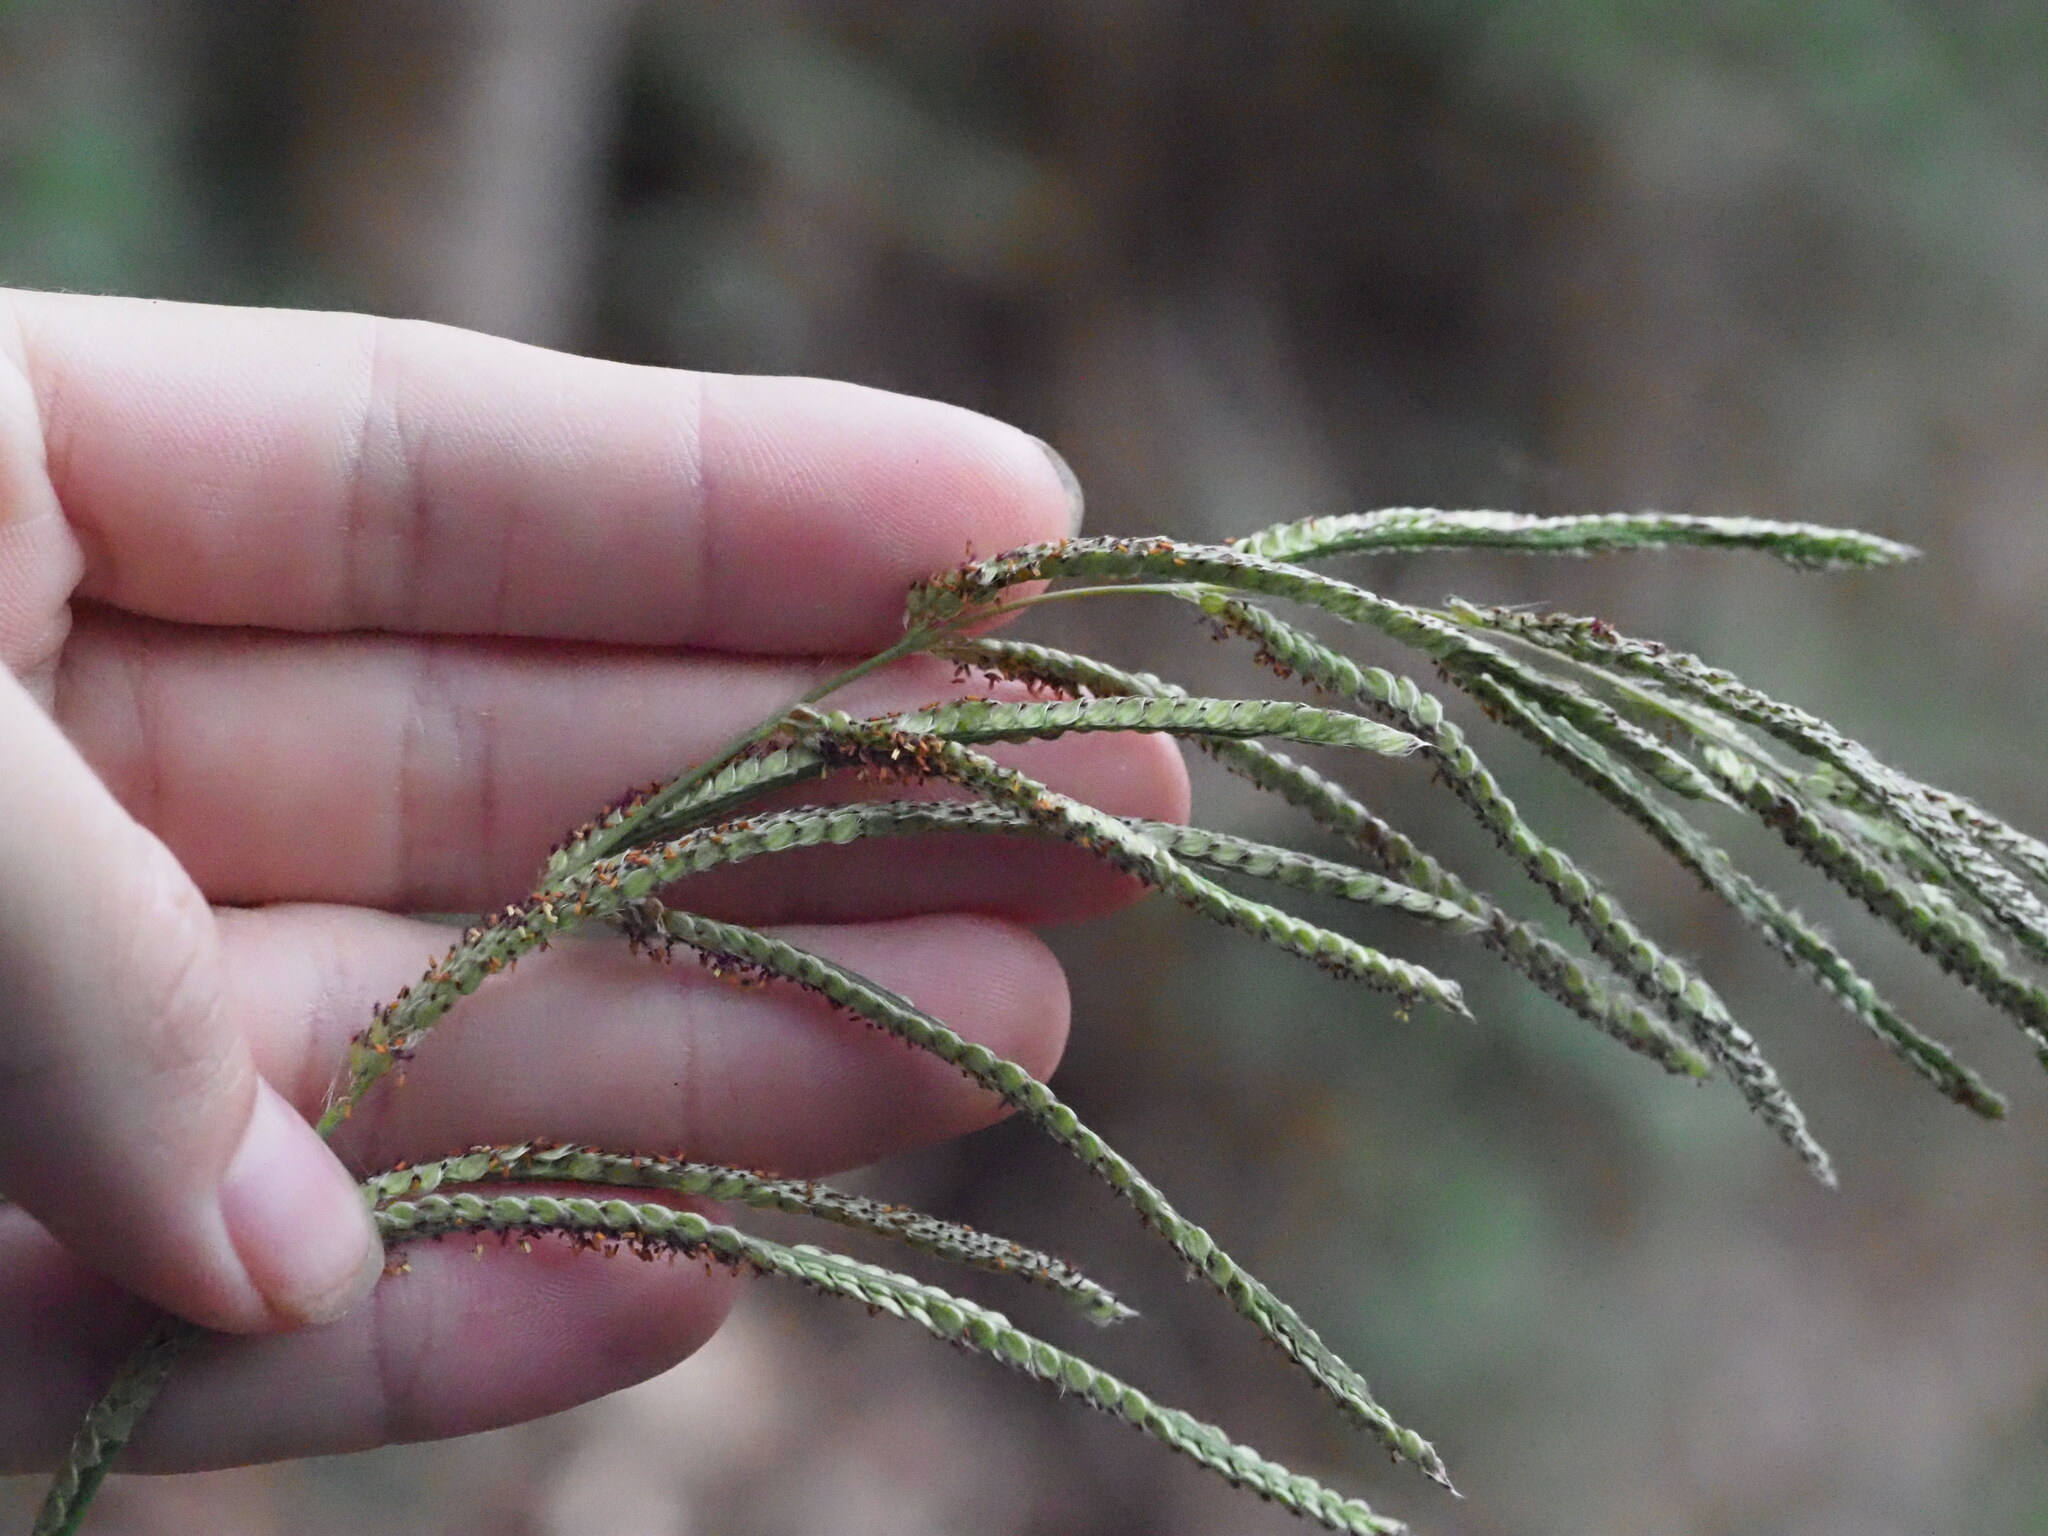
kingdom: Plantae
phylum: Tracheophyta
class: Liliopsida
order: Poales
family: Poaceae
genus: Paspalum
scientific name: Paspalum urvillei
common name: Vasey's grass
